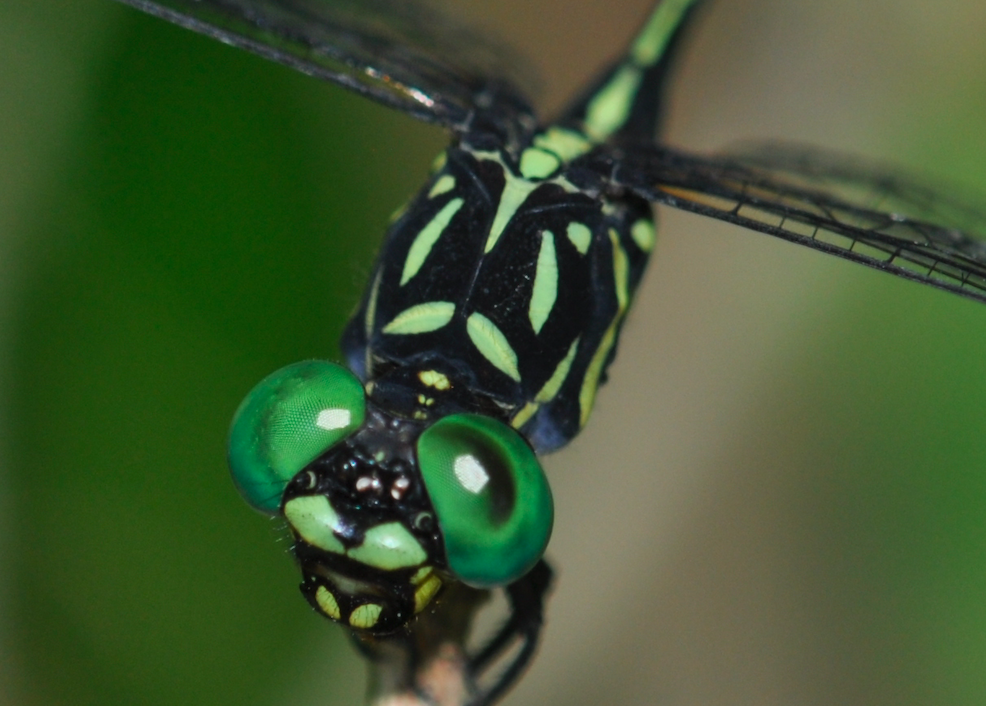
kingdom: Animalia
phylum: Arthropoda
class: Insecta
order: Odonata
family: Gomphidae
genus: Onychogomphus
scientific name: Onychogomphus aequistylus
